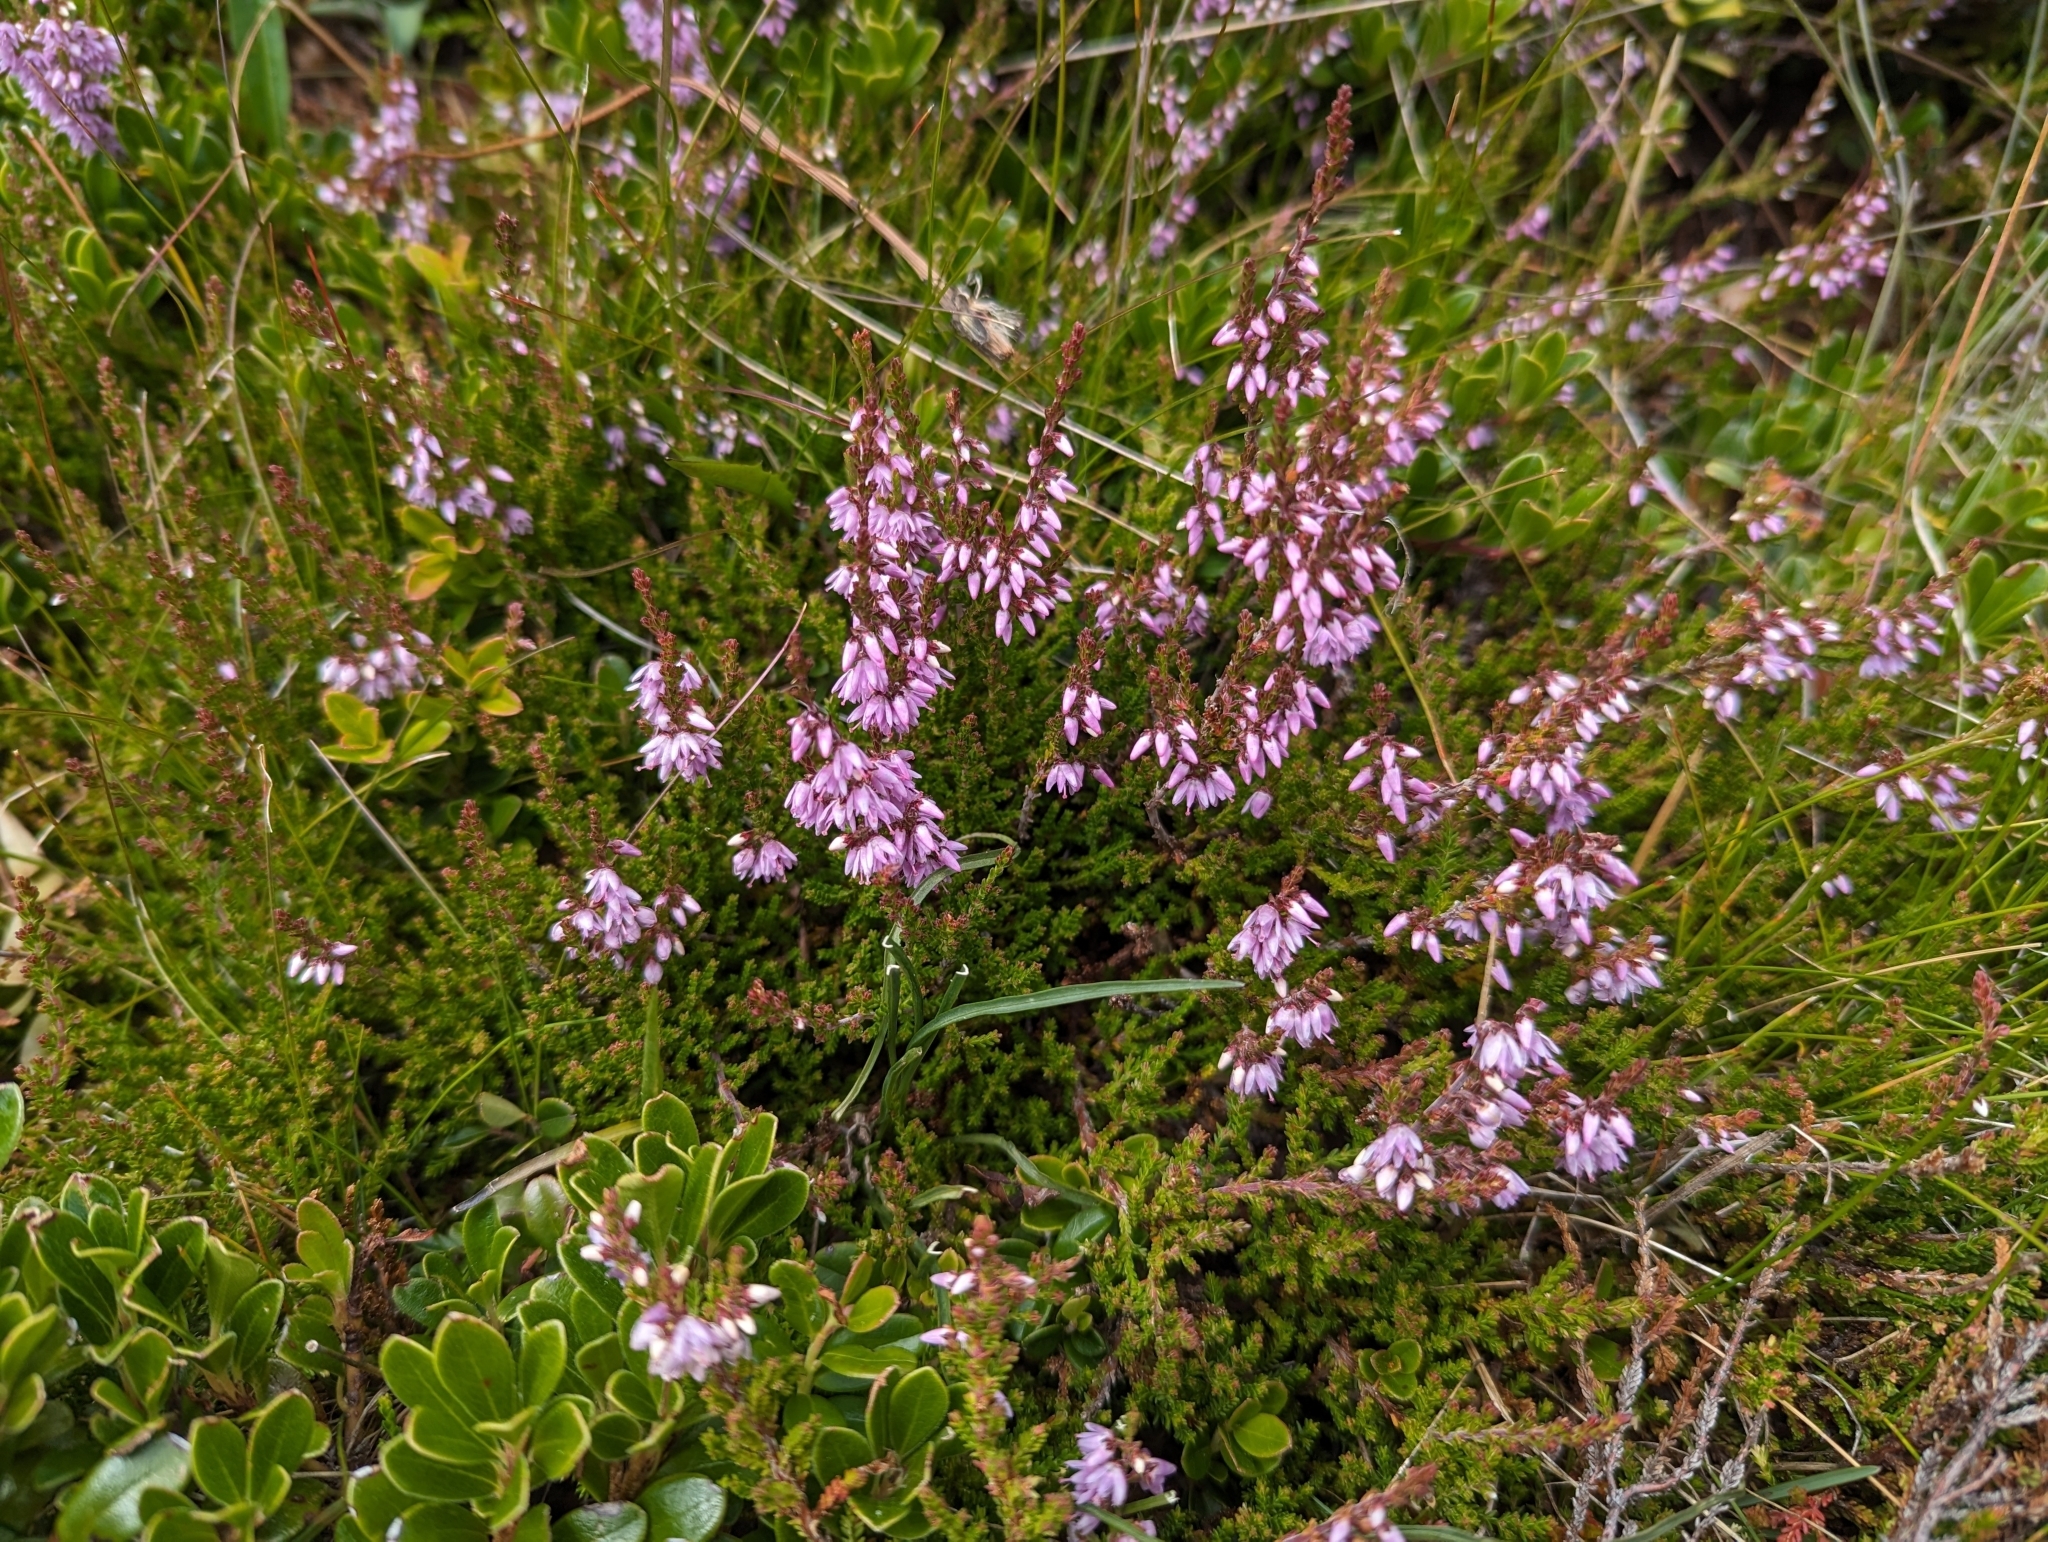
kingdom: Plantae
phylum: Tracheophyta
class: Magnoliopsida
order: Ericales
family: Ericaceae
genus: Calluna
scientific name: Calluna vulgaris
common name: Heather
